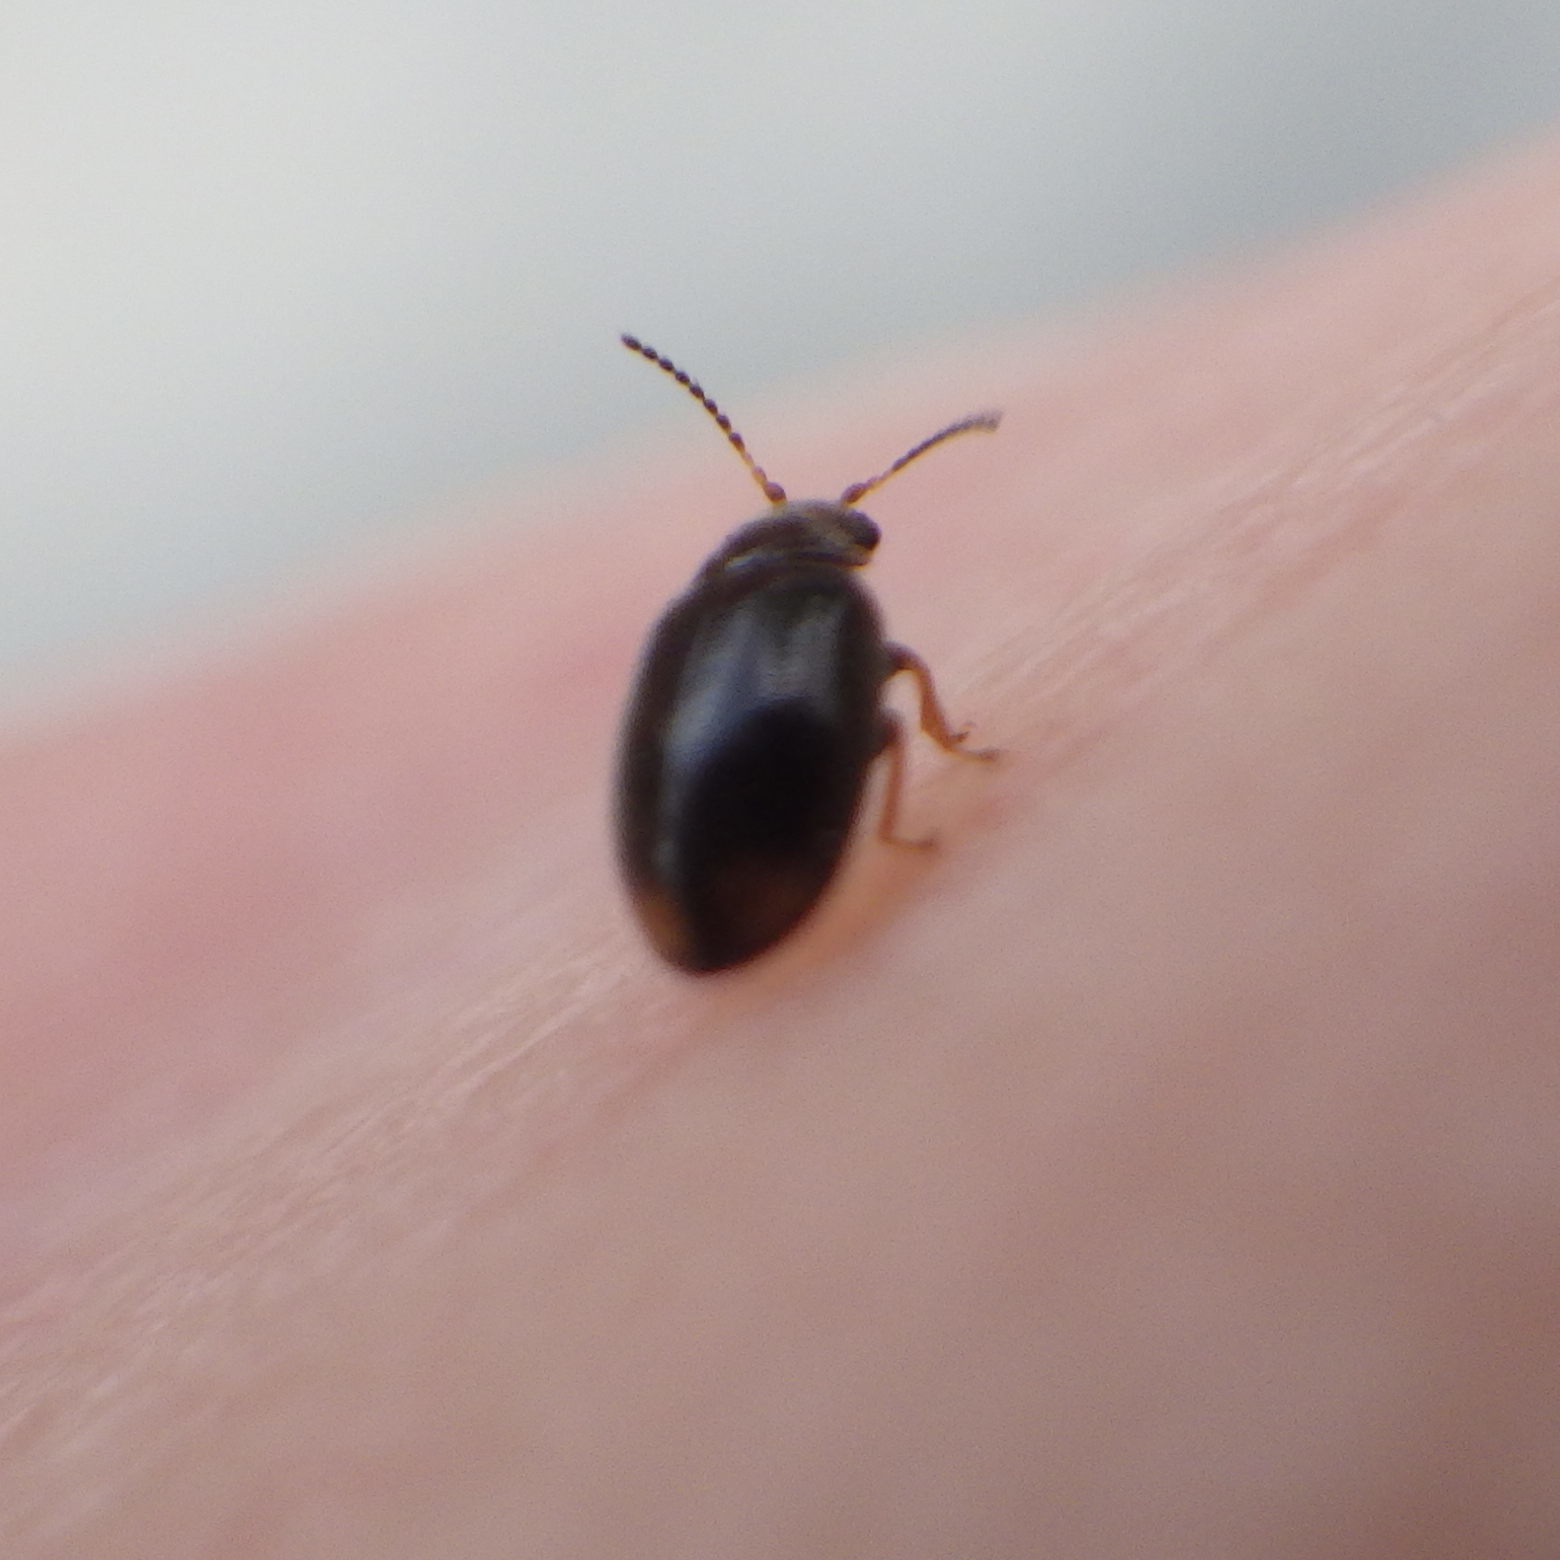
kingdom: Animalia
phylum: Arthropoda
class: Insecta
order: Coleoptera
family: Scirtidae
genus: Cyphon
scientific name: Cyphon padi
